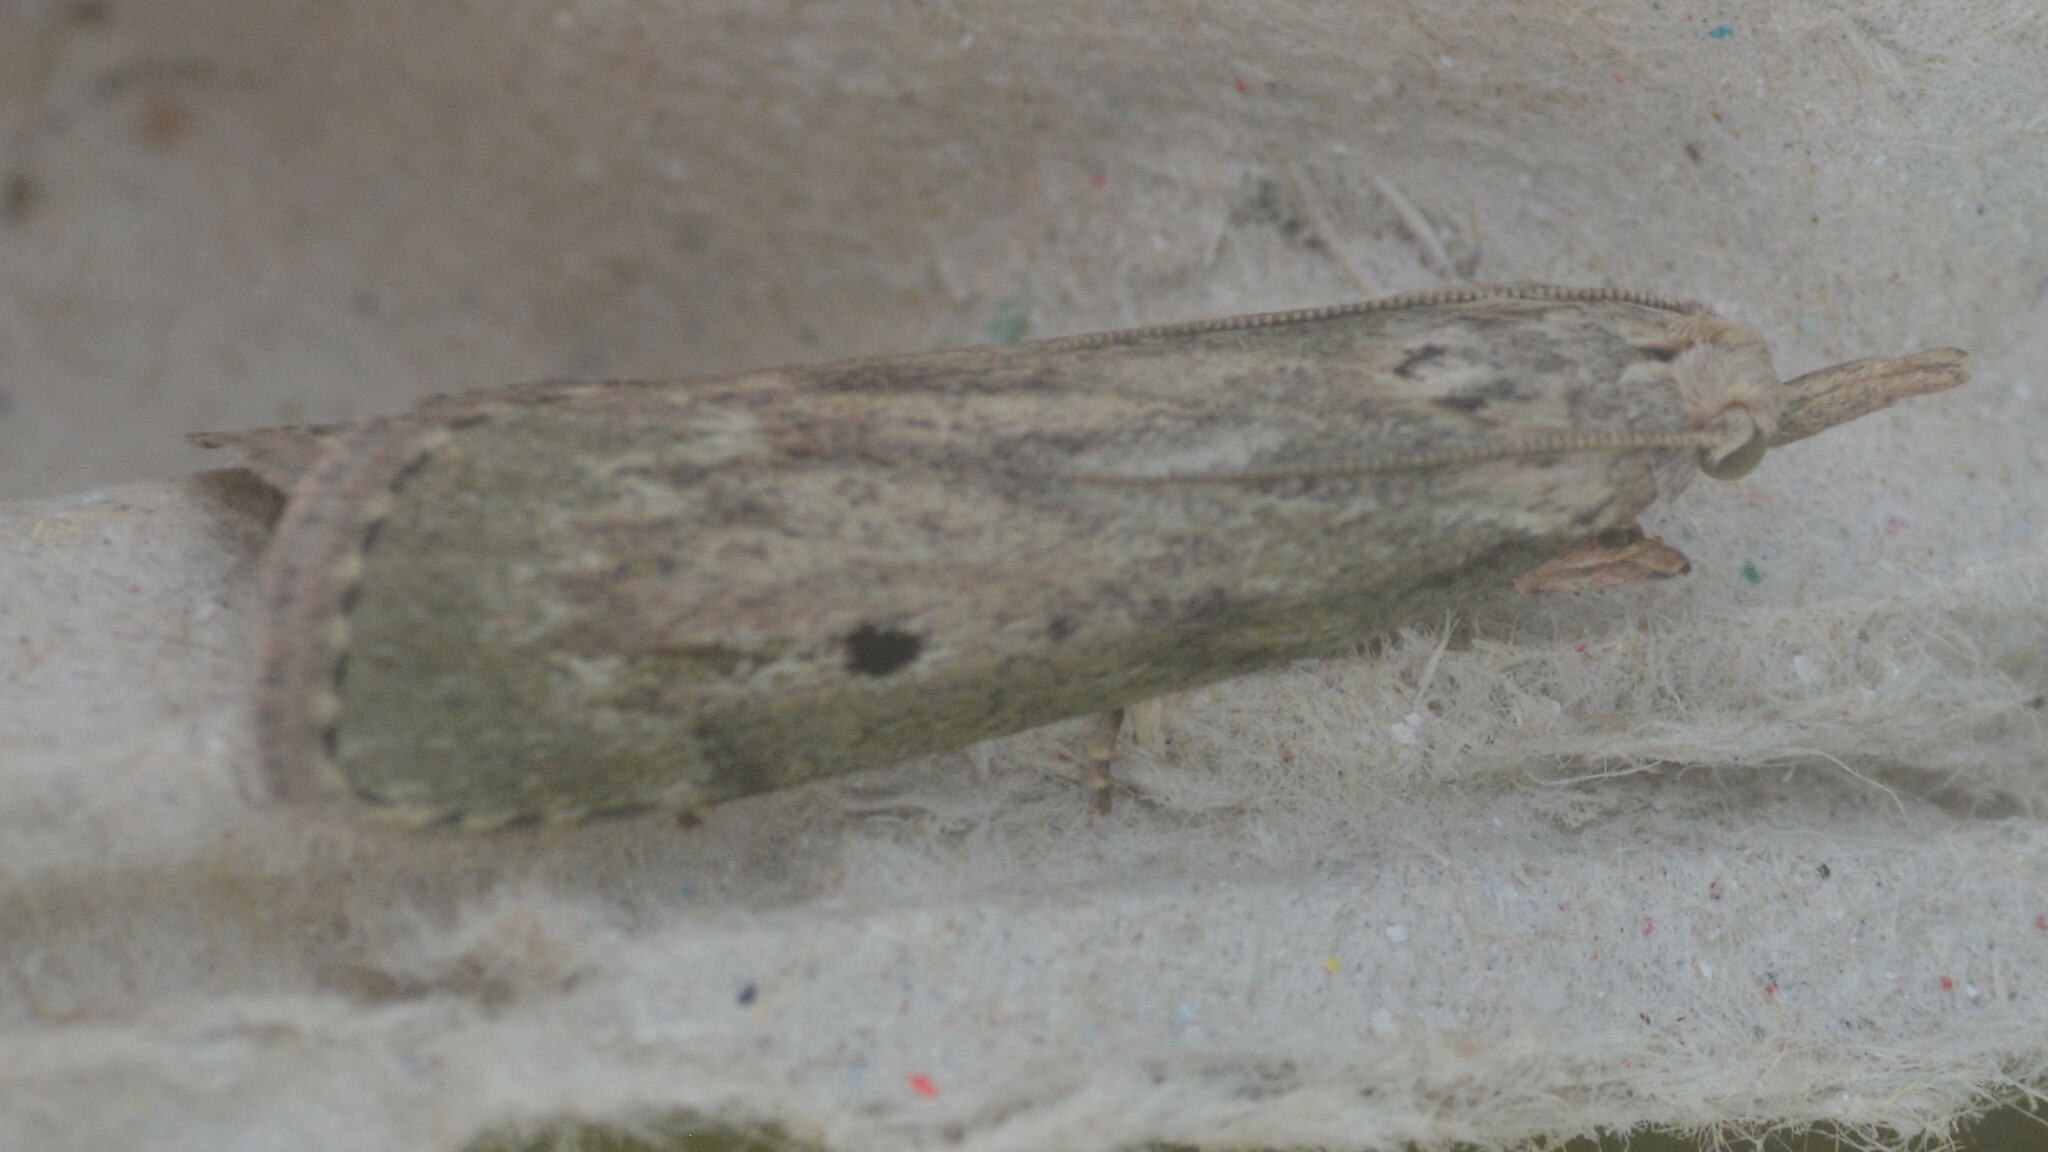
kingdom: Animalia
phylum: Arthropoda
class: Insecta
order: Lepidoptera
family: Pyralidae
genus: Aphomia
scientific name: Aphomia sociella
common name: Bee moth
